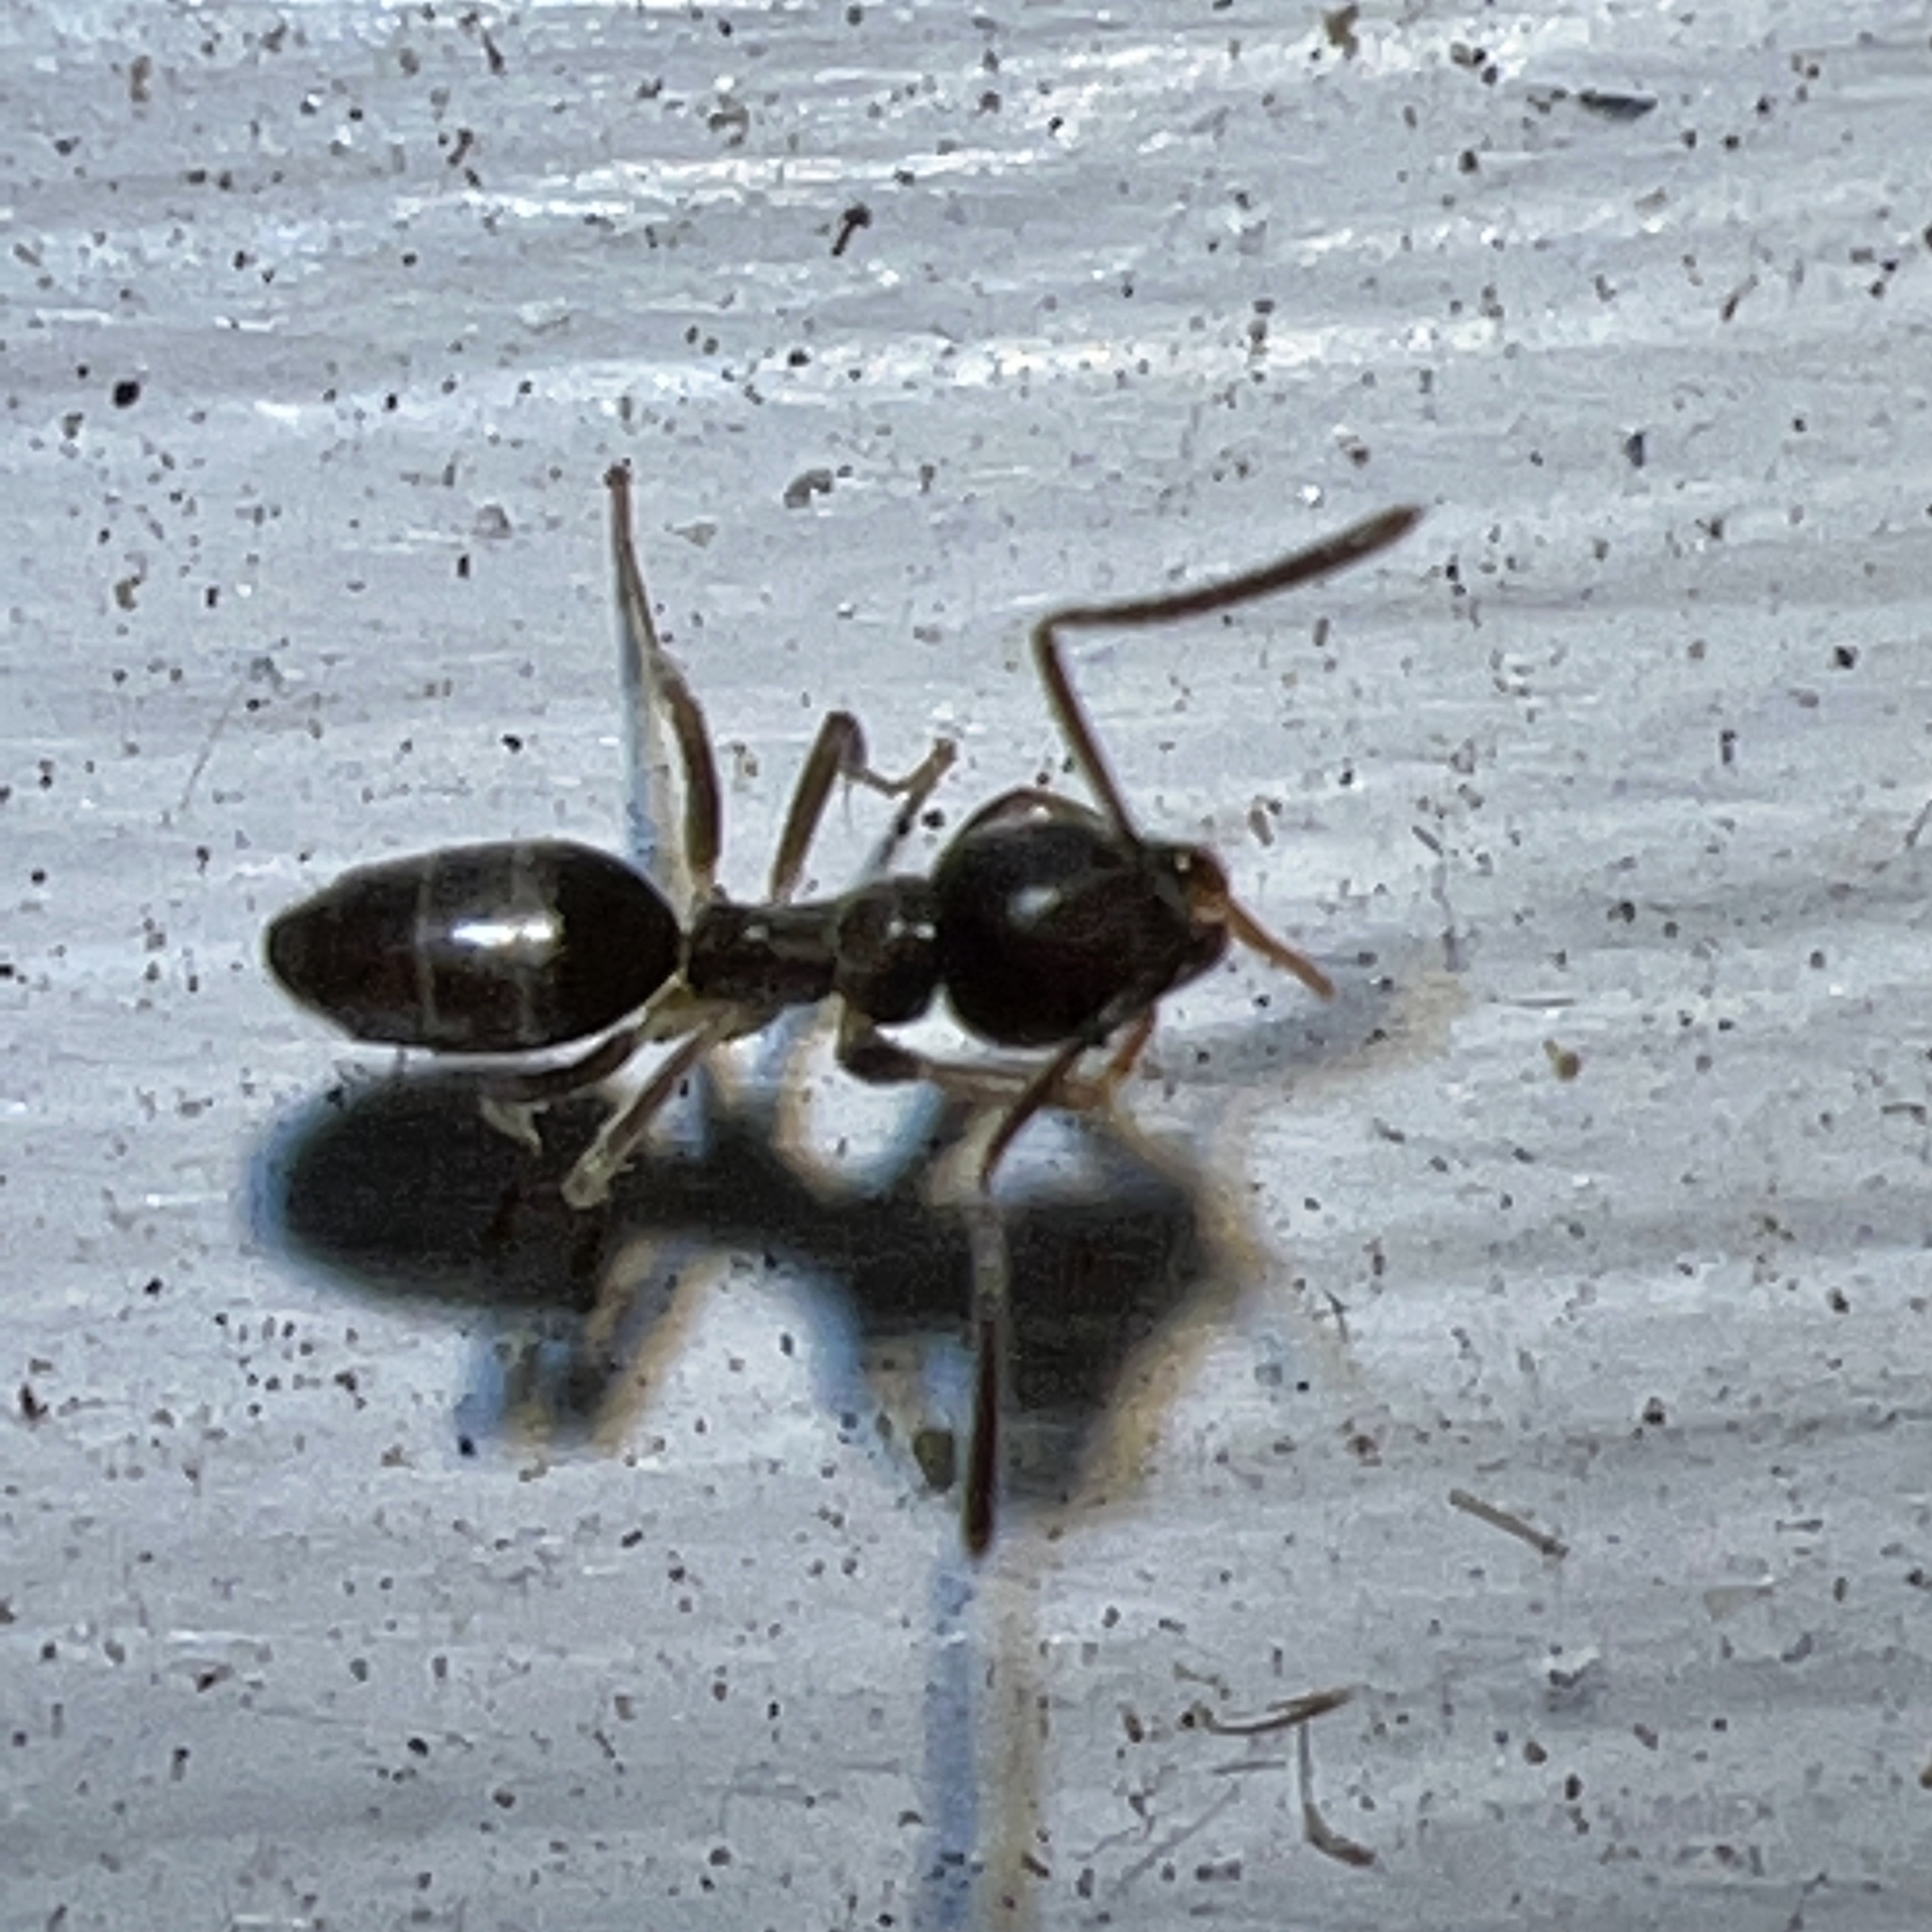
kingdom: Animalia
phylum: Arthropoda
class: Insecta
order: Hymenoptera
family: Formicidae
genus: Tapinoma
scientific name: Tapinoma sessile
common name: Odorous house ant
